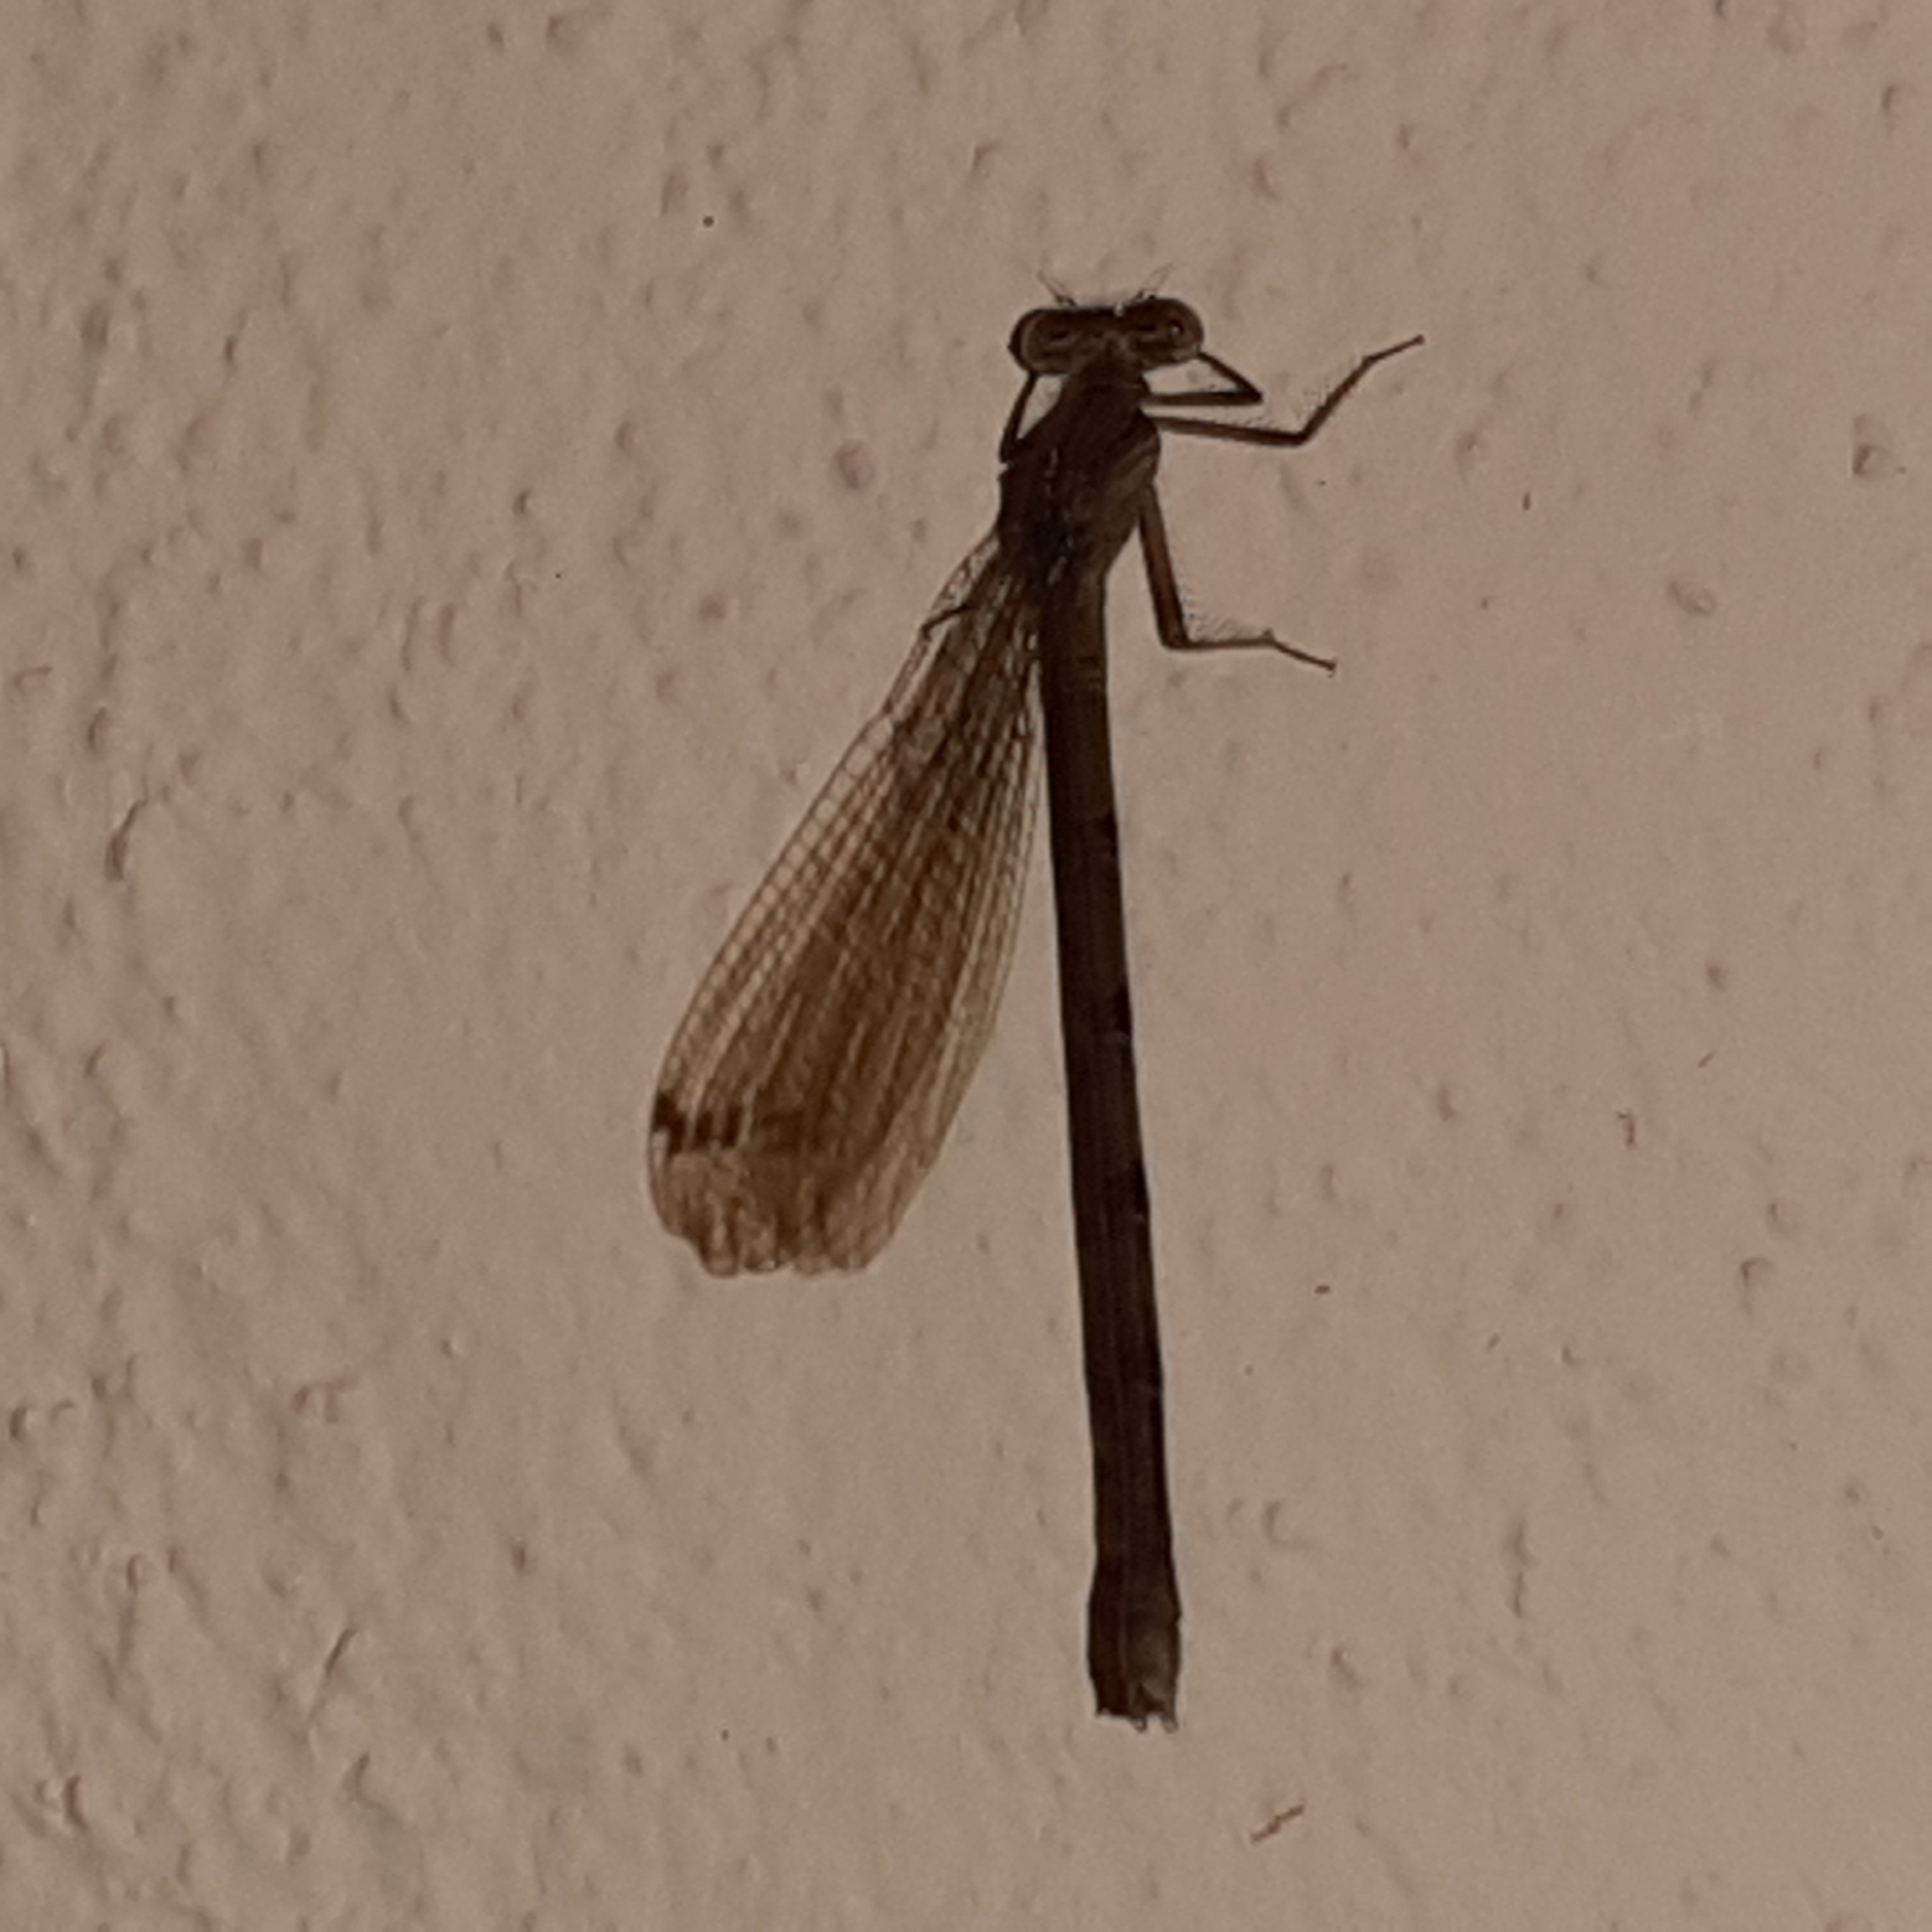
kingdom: Animalia
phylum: Arthropoda
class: Insecta
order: Odonata
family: Coenagrionidae
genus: Argia
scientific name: Argia anceps
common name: Cerulean dancer
